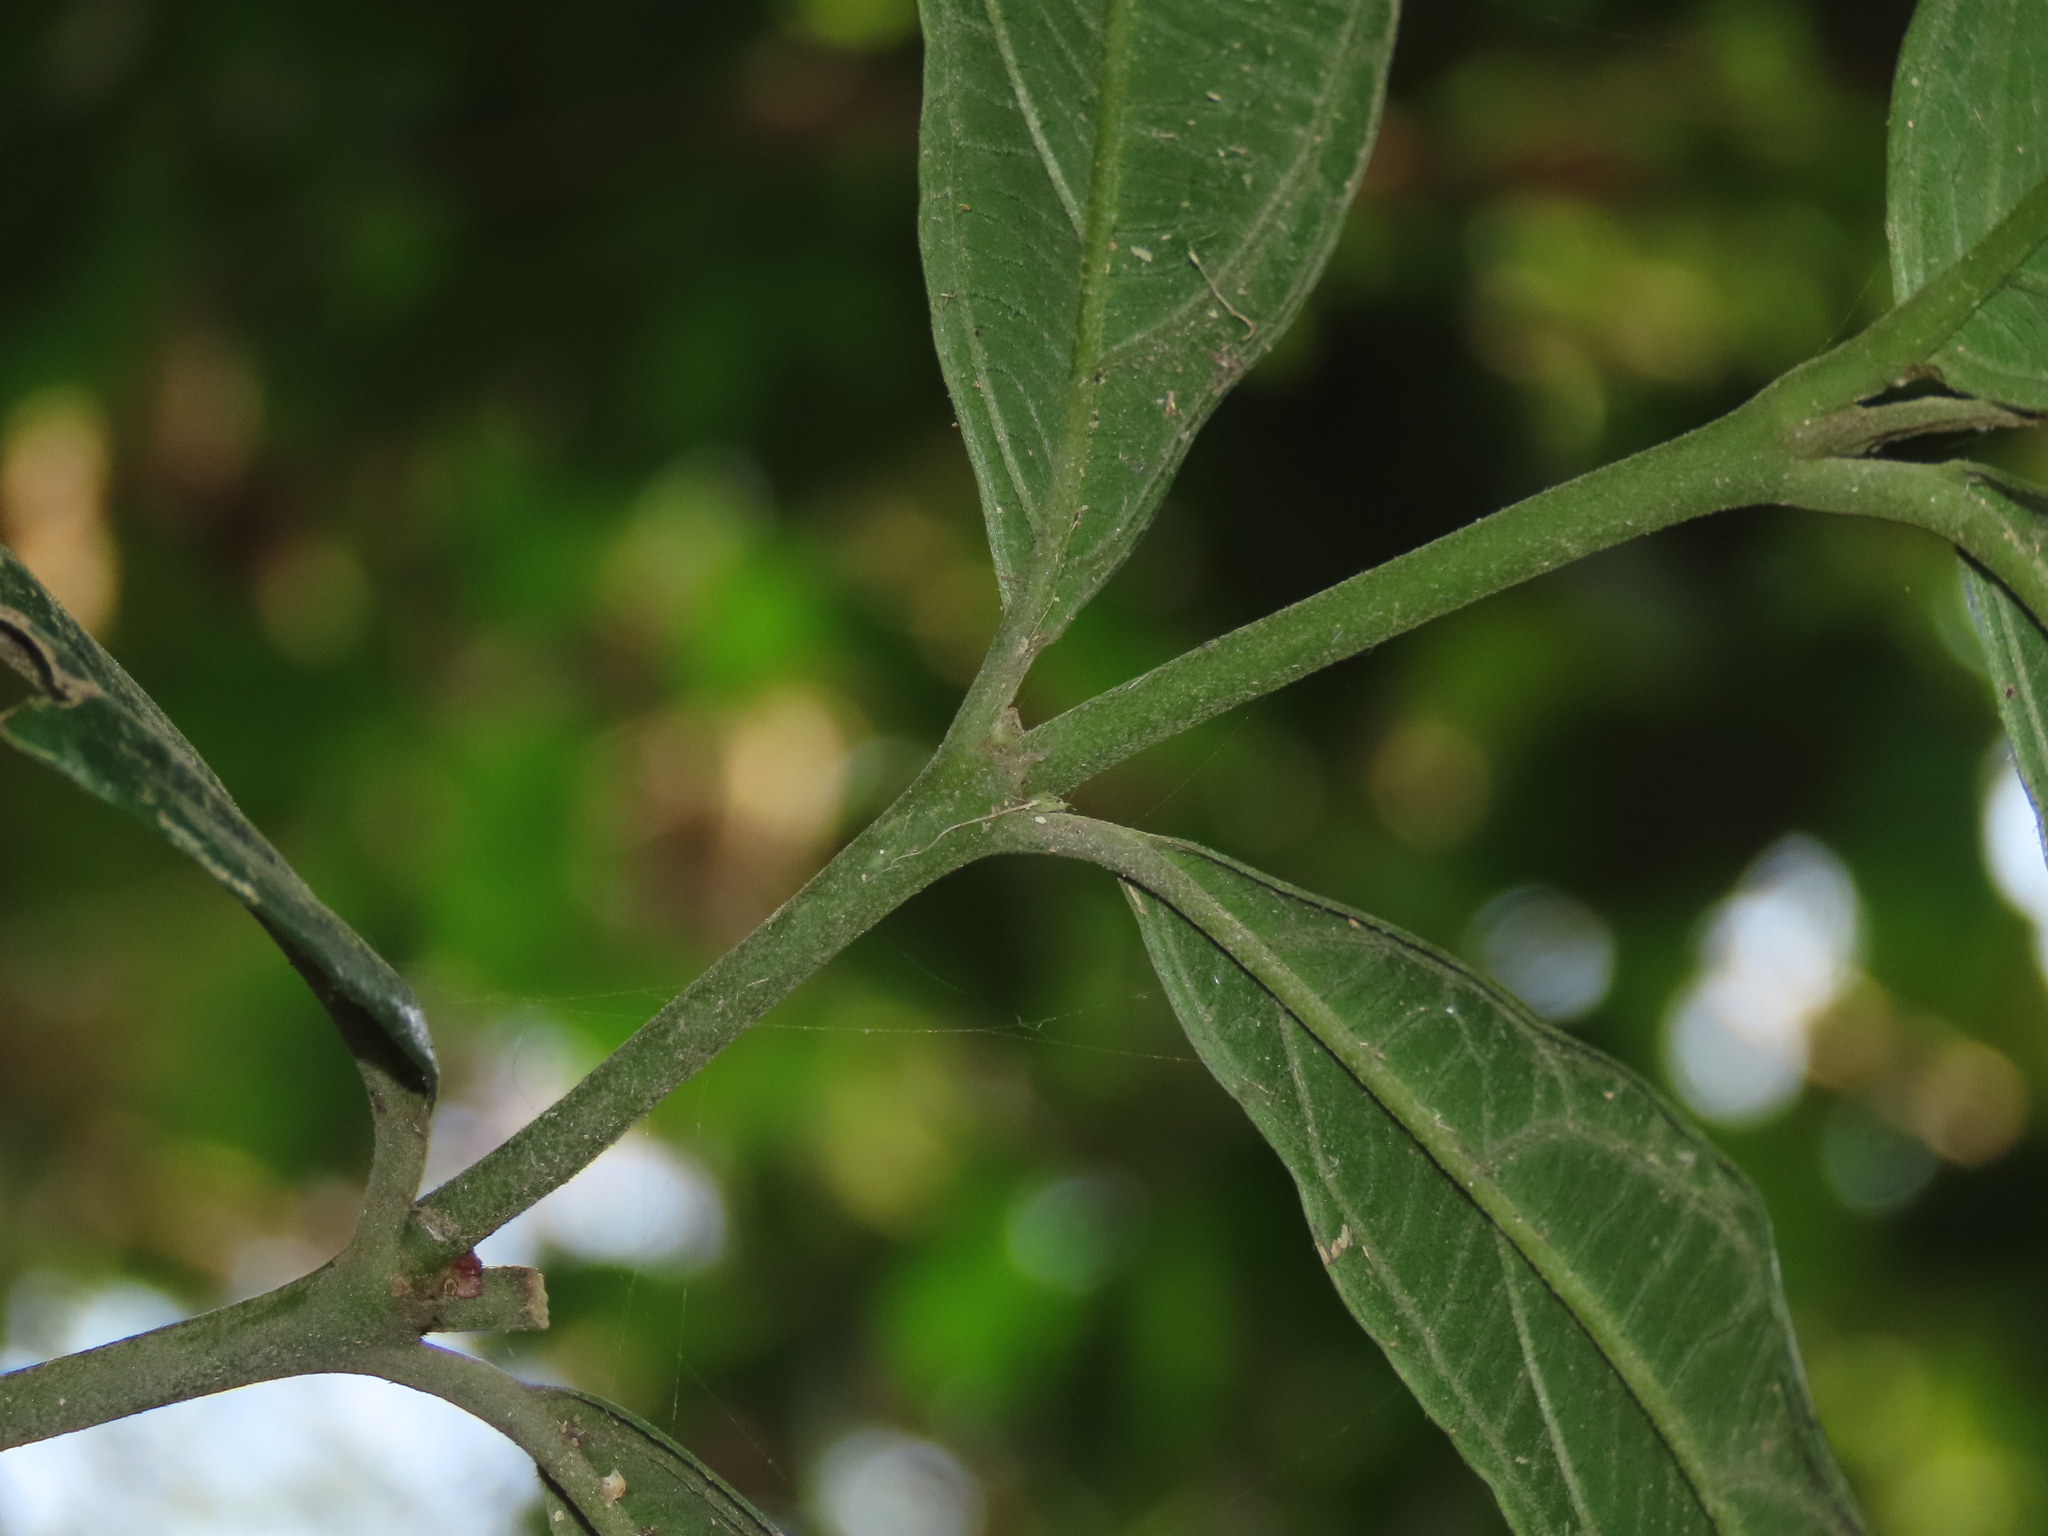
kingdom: Plantae
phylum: Tracheophyta
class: Magnoliopsida
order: Gentianales
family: Rubiaceae
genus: Lasianthus
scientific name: Lasianthus verticillatus
